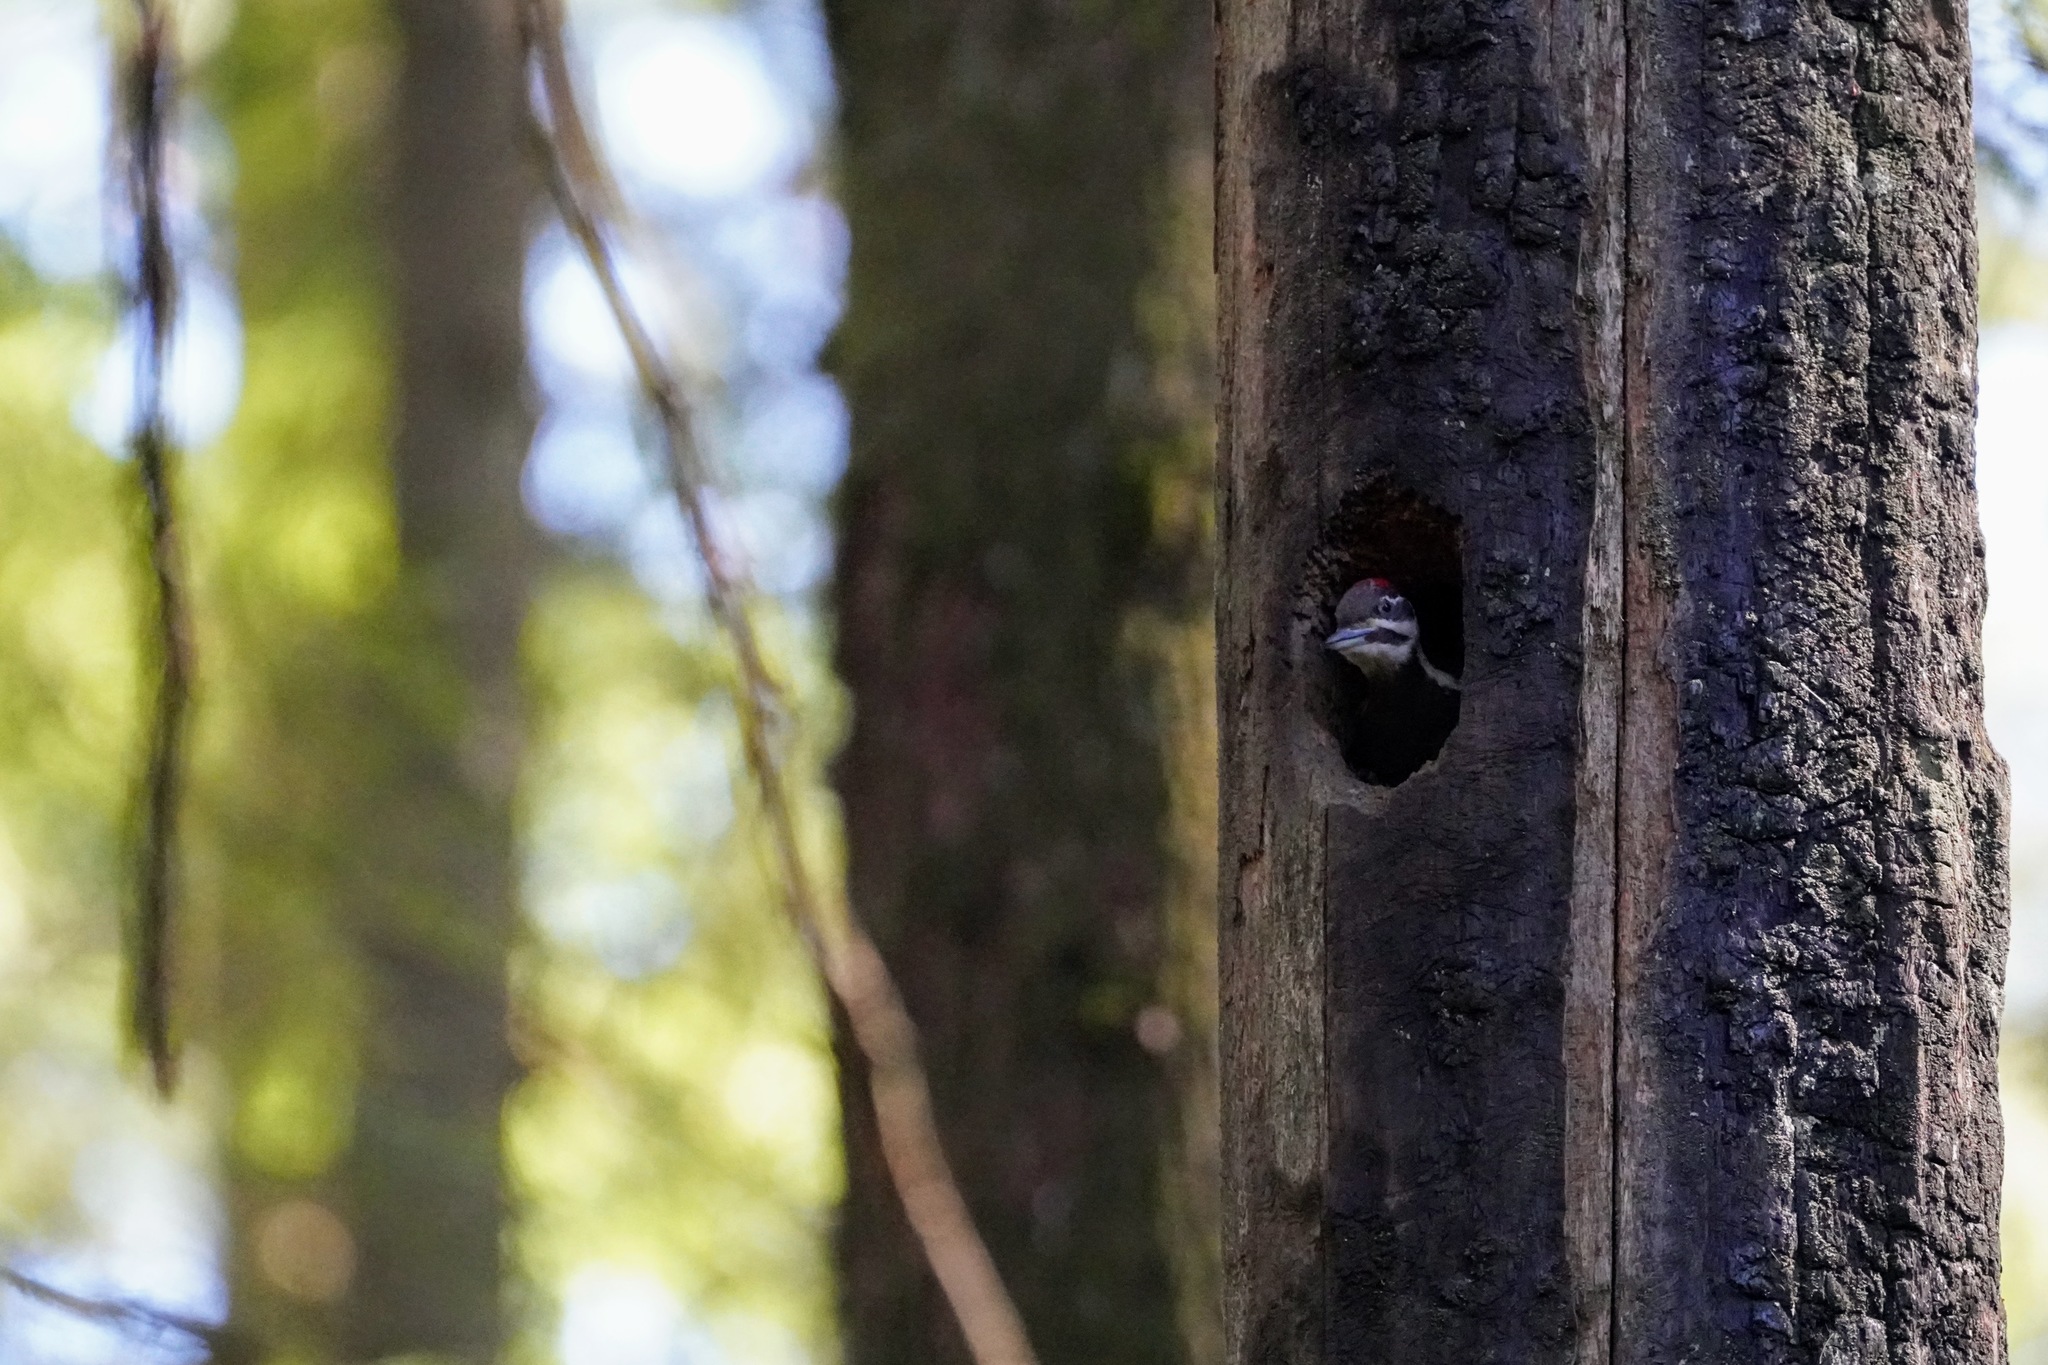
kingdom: Animalia
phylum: Chordata
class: Aves
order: Piciformes
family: Picidae
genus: Dryocopus
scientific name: Dryocopus pileatus
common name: Pileated woodpecker
